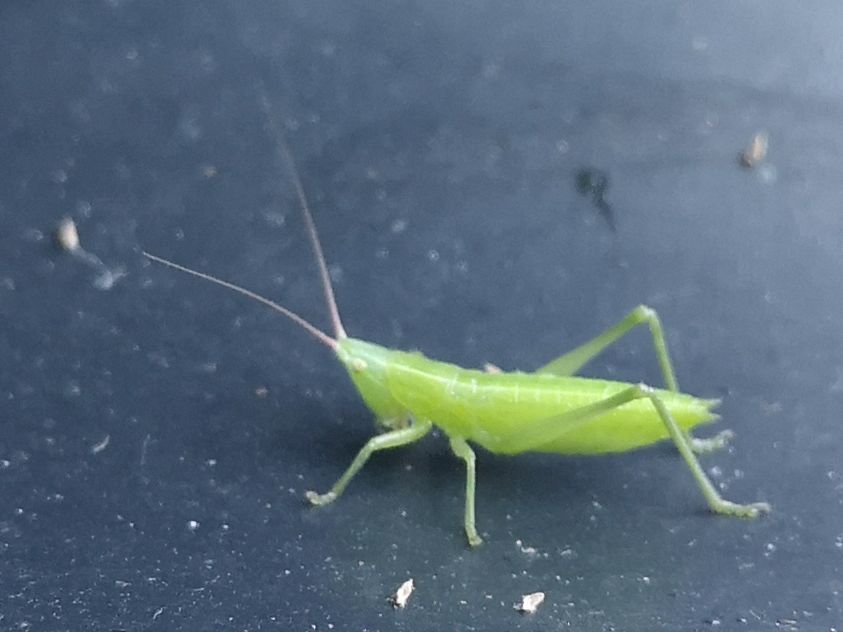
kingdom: Animalia
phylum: Arthropoda
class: Insecta
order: Orthoptera
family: Tettigoniidae
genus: Ruspolia
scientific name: Ruspolia nitidula
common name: Large conehead
